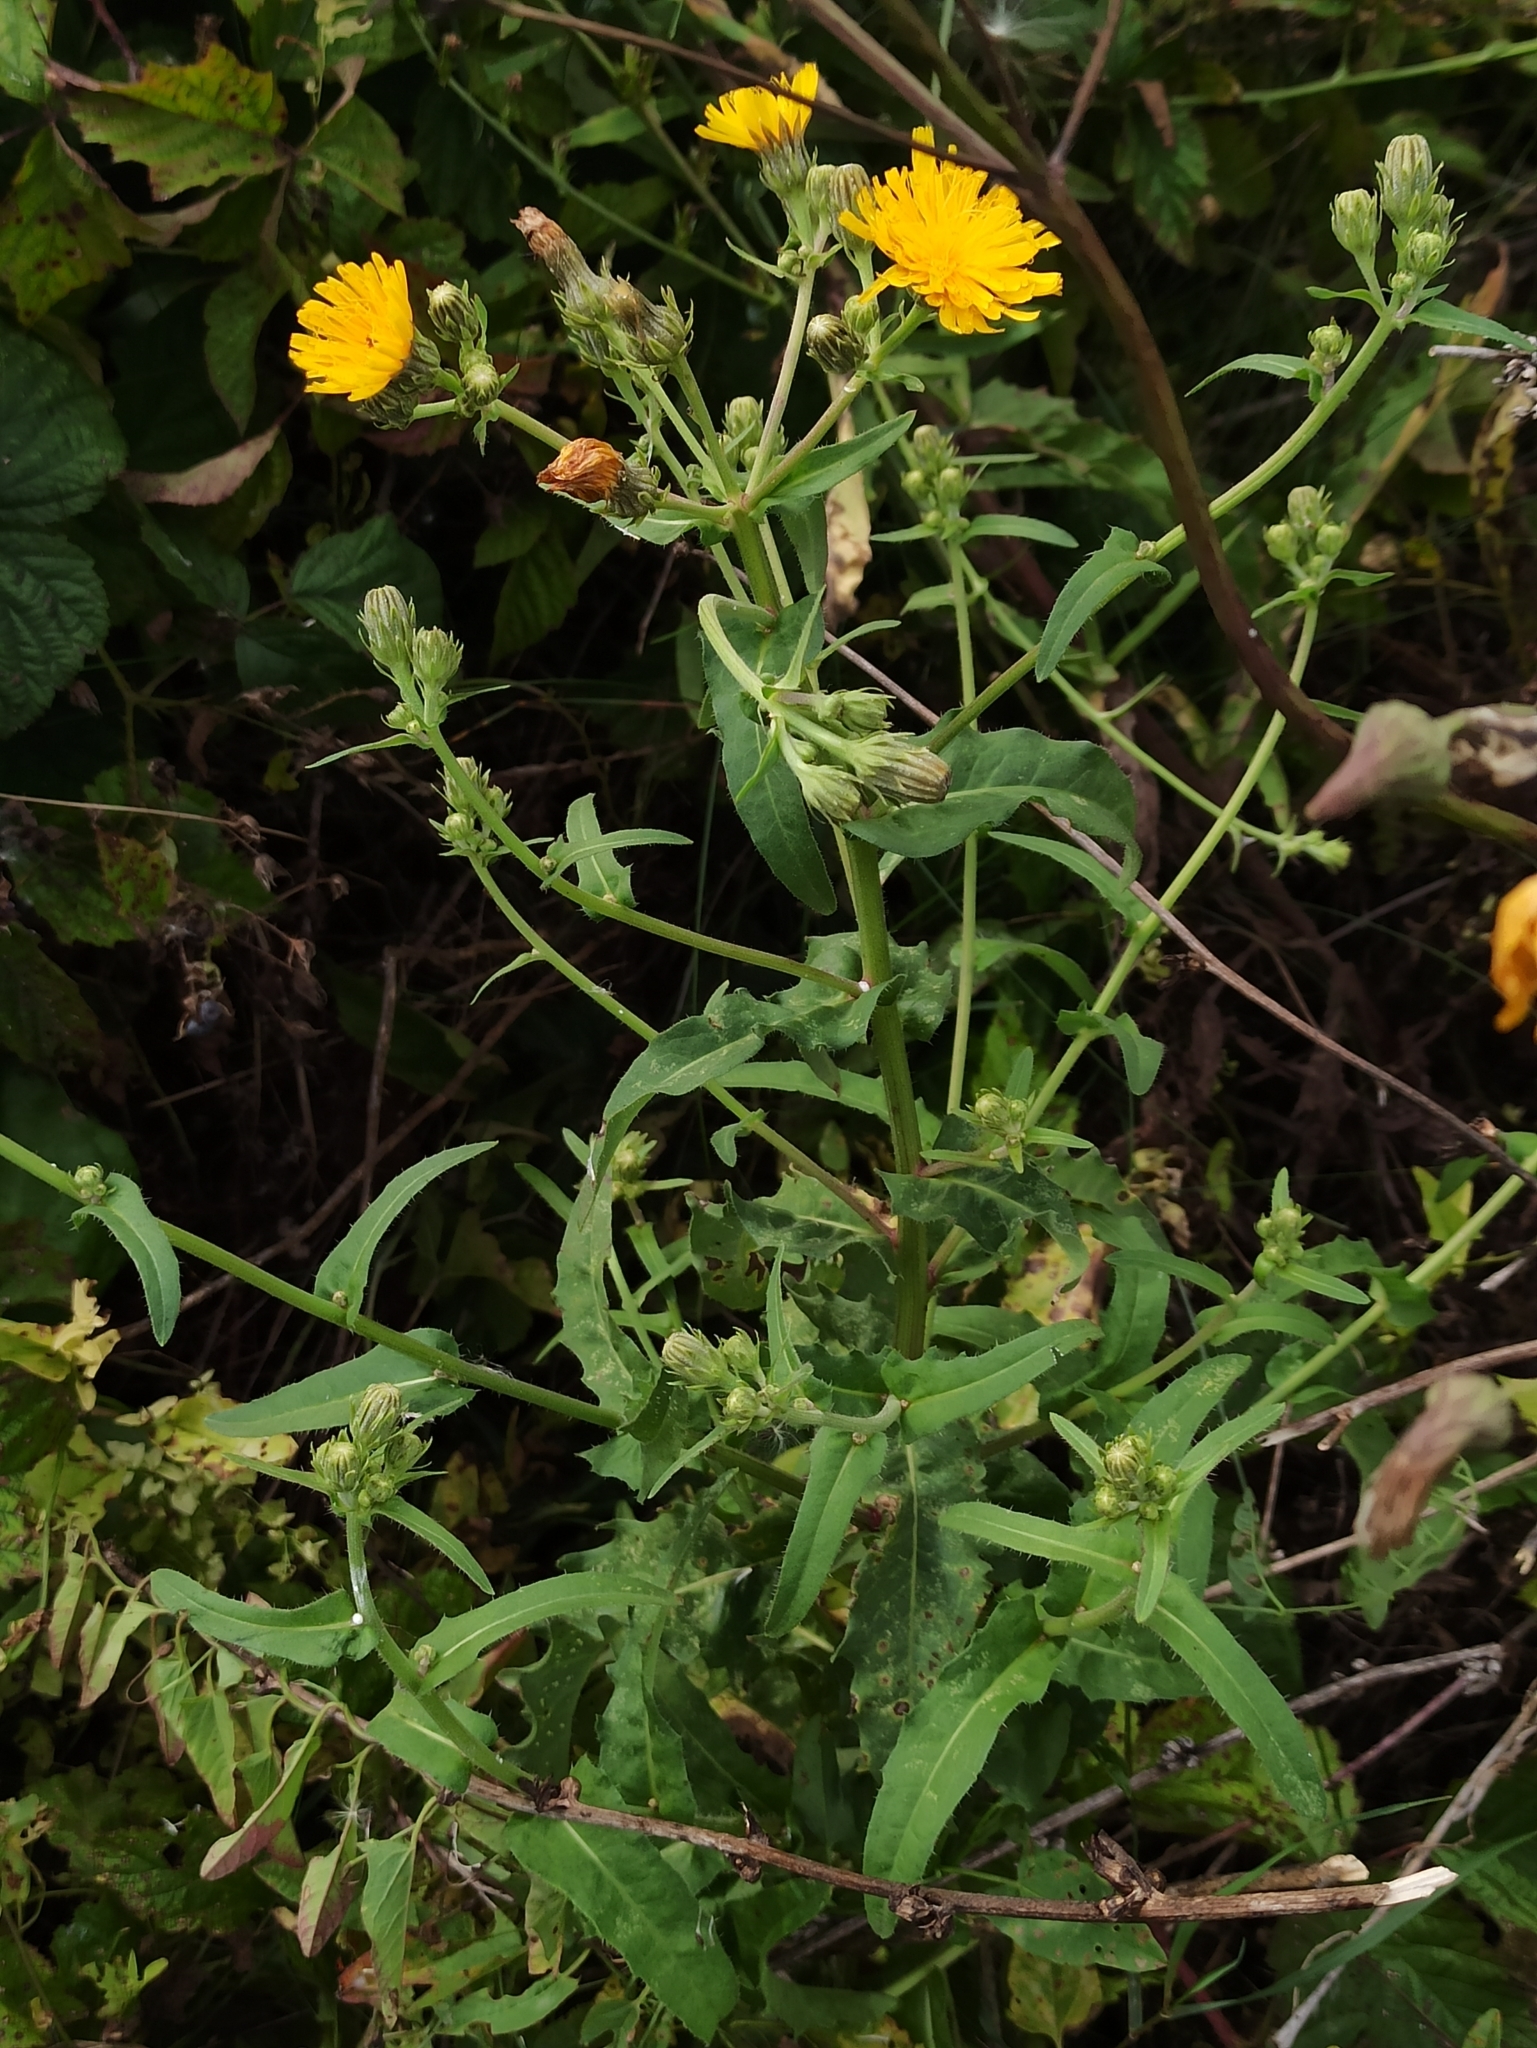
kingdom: Plantae
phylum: Tracheophyta
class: Magnoliopsida
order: Asterales
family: Asteraceae
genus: Picris
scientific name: Picris hieracioides
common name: Hawkweed oxtongue
